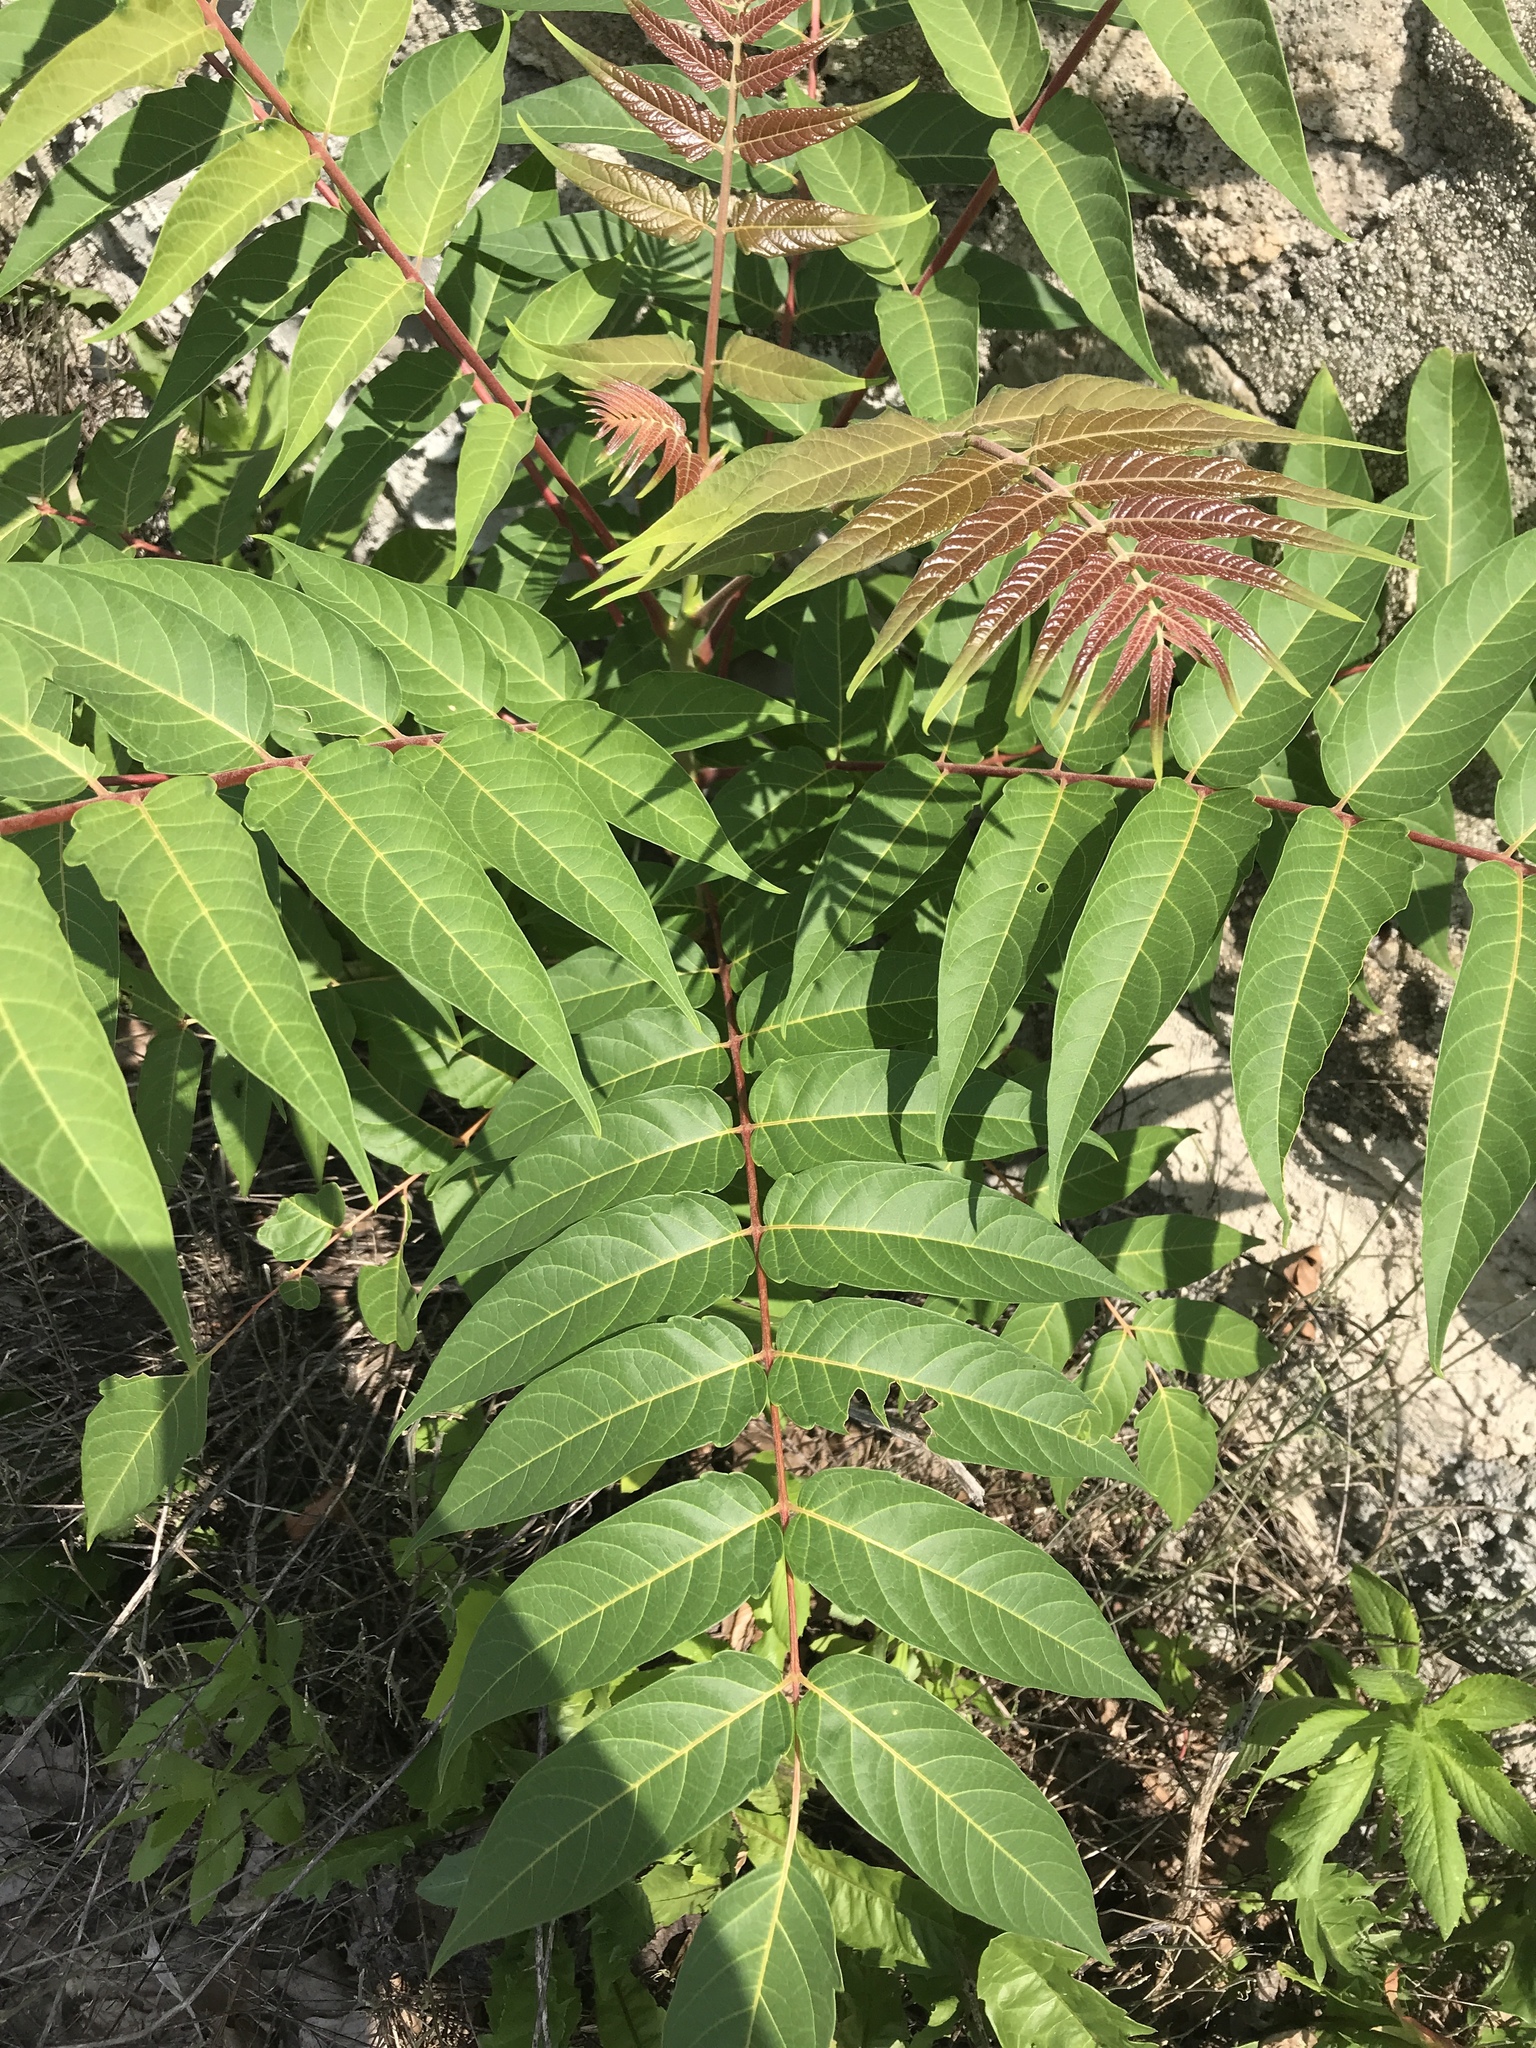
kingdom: Plantae
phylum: Tracheophyta
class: Magnoliopsida
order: Sapindales
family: Simaroubaceae
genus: Ailanthus
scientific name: Ailanthus altissima
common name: Tree-of-heaven
